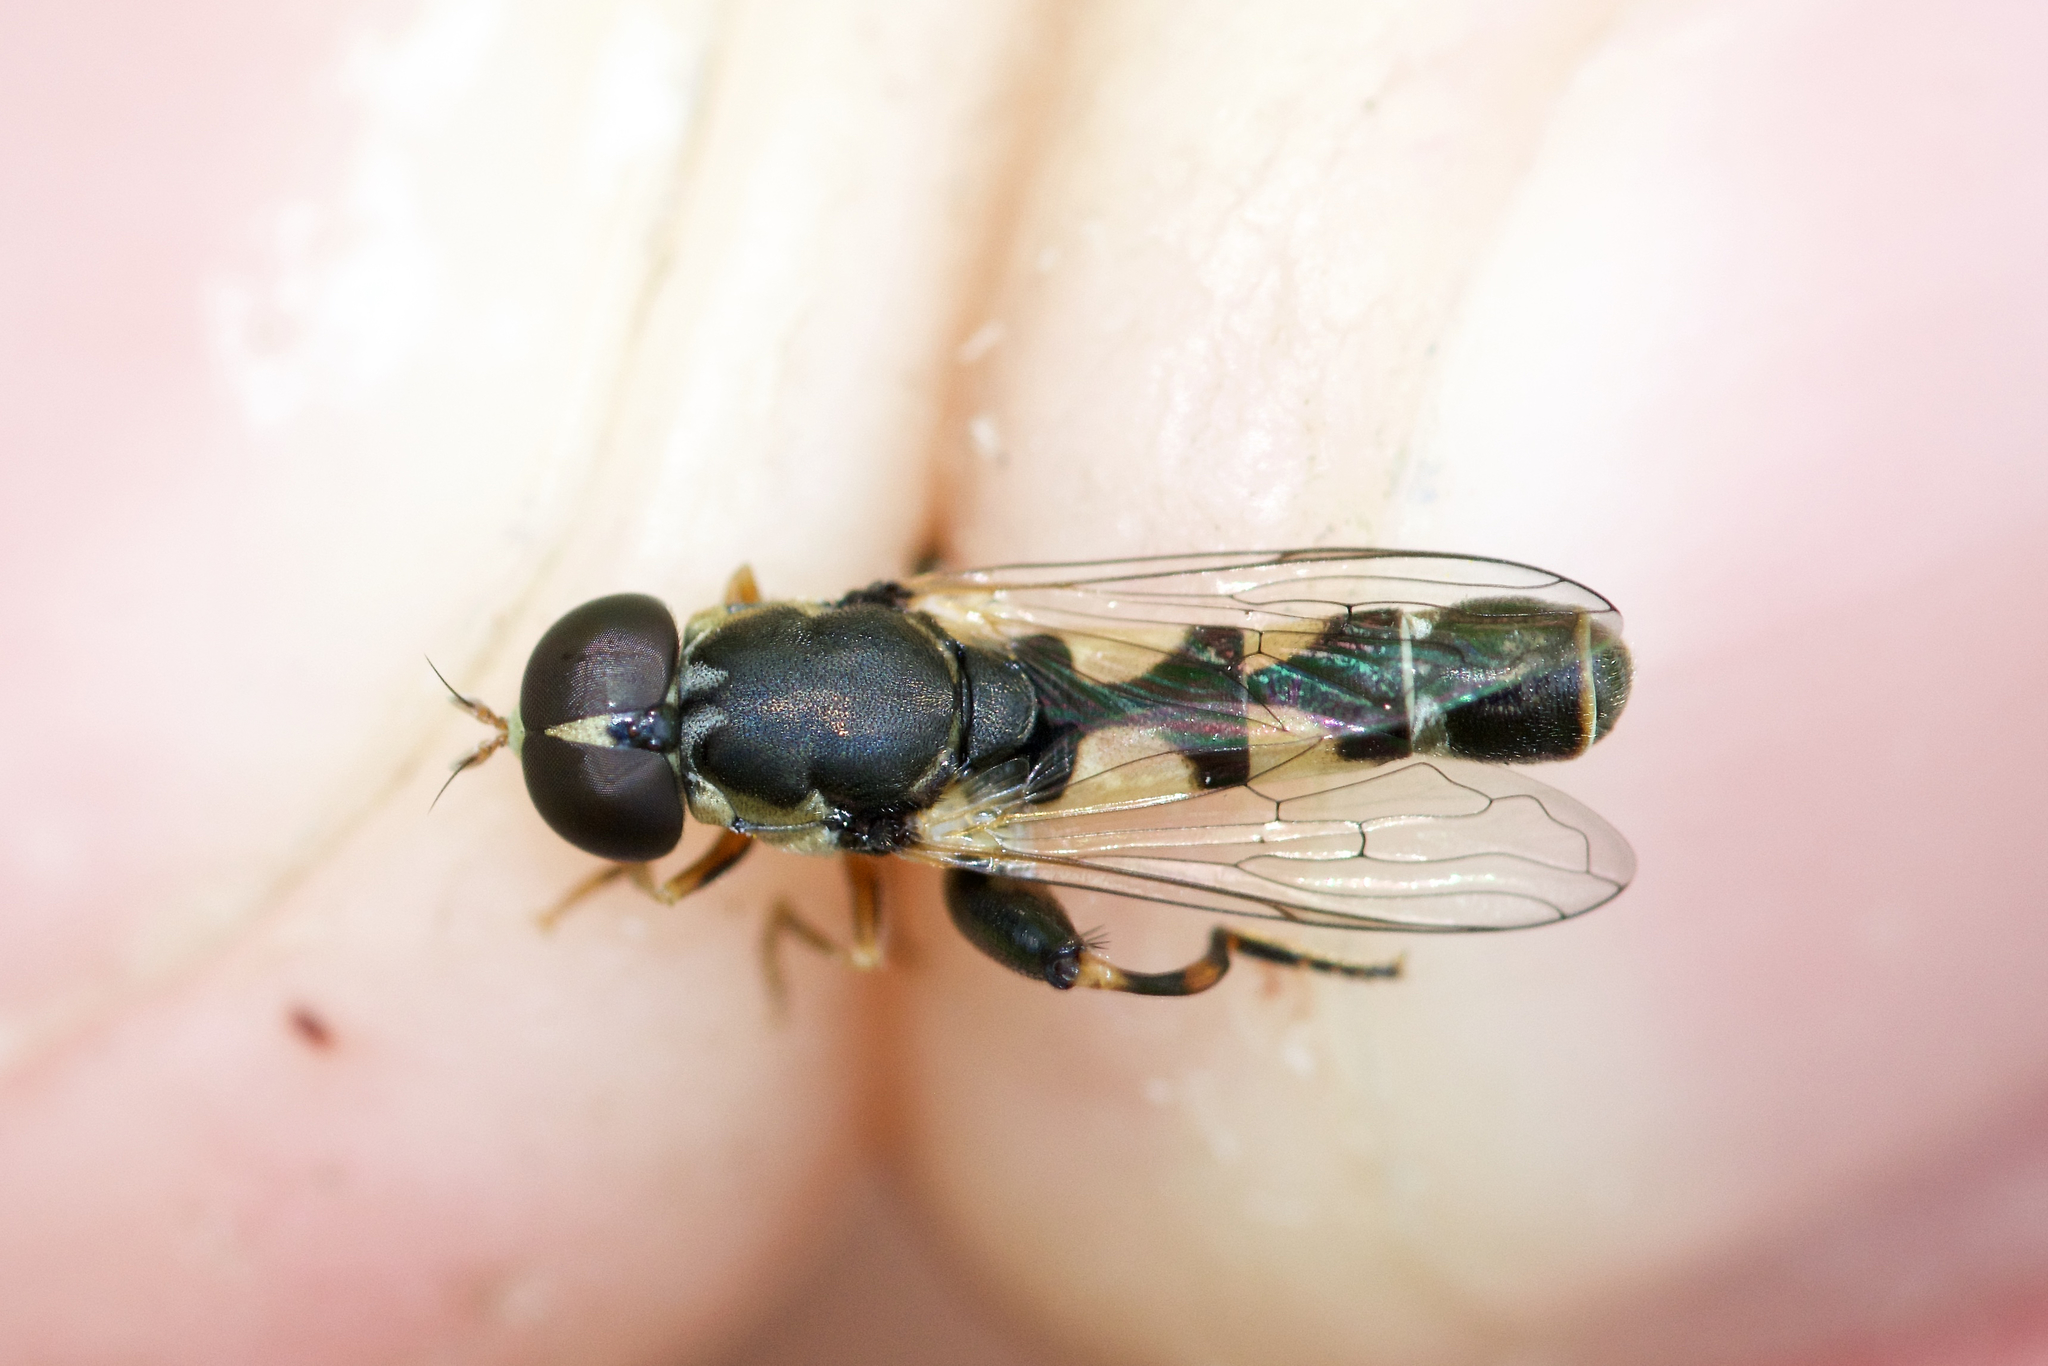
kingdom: Animalia
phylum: Arthropoda
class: Insecta
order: Diptera
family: Syrphidae
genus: Syritta
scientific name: Syritta pipiens
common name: Hover fly
